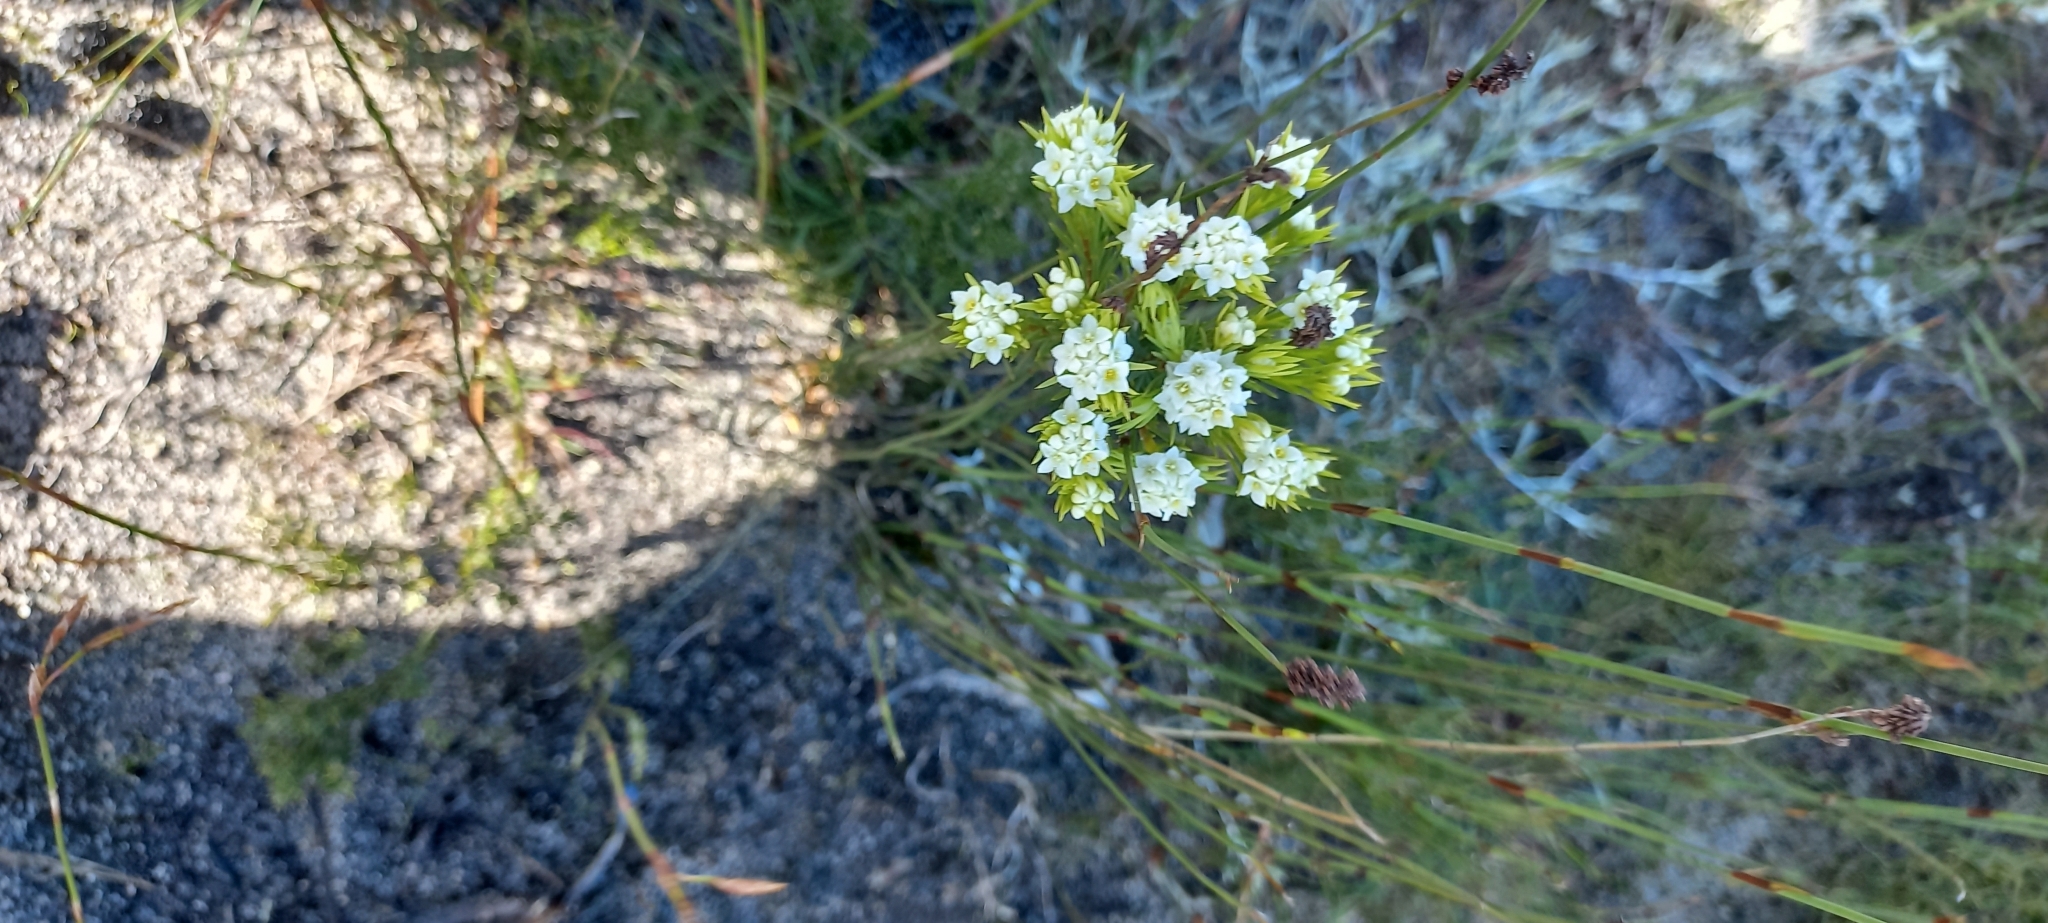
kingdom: Plantae
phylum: Tracheophyta
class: Magnoliopsida
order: Malvales
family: Thymelaeaceae
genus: Lachnaea
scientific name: Lachnaea densiflora
